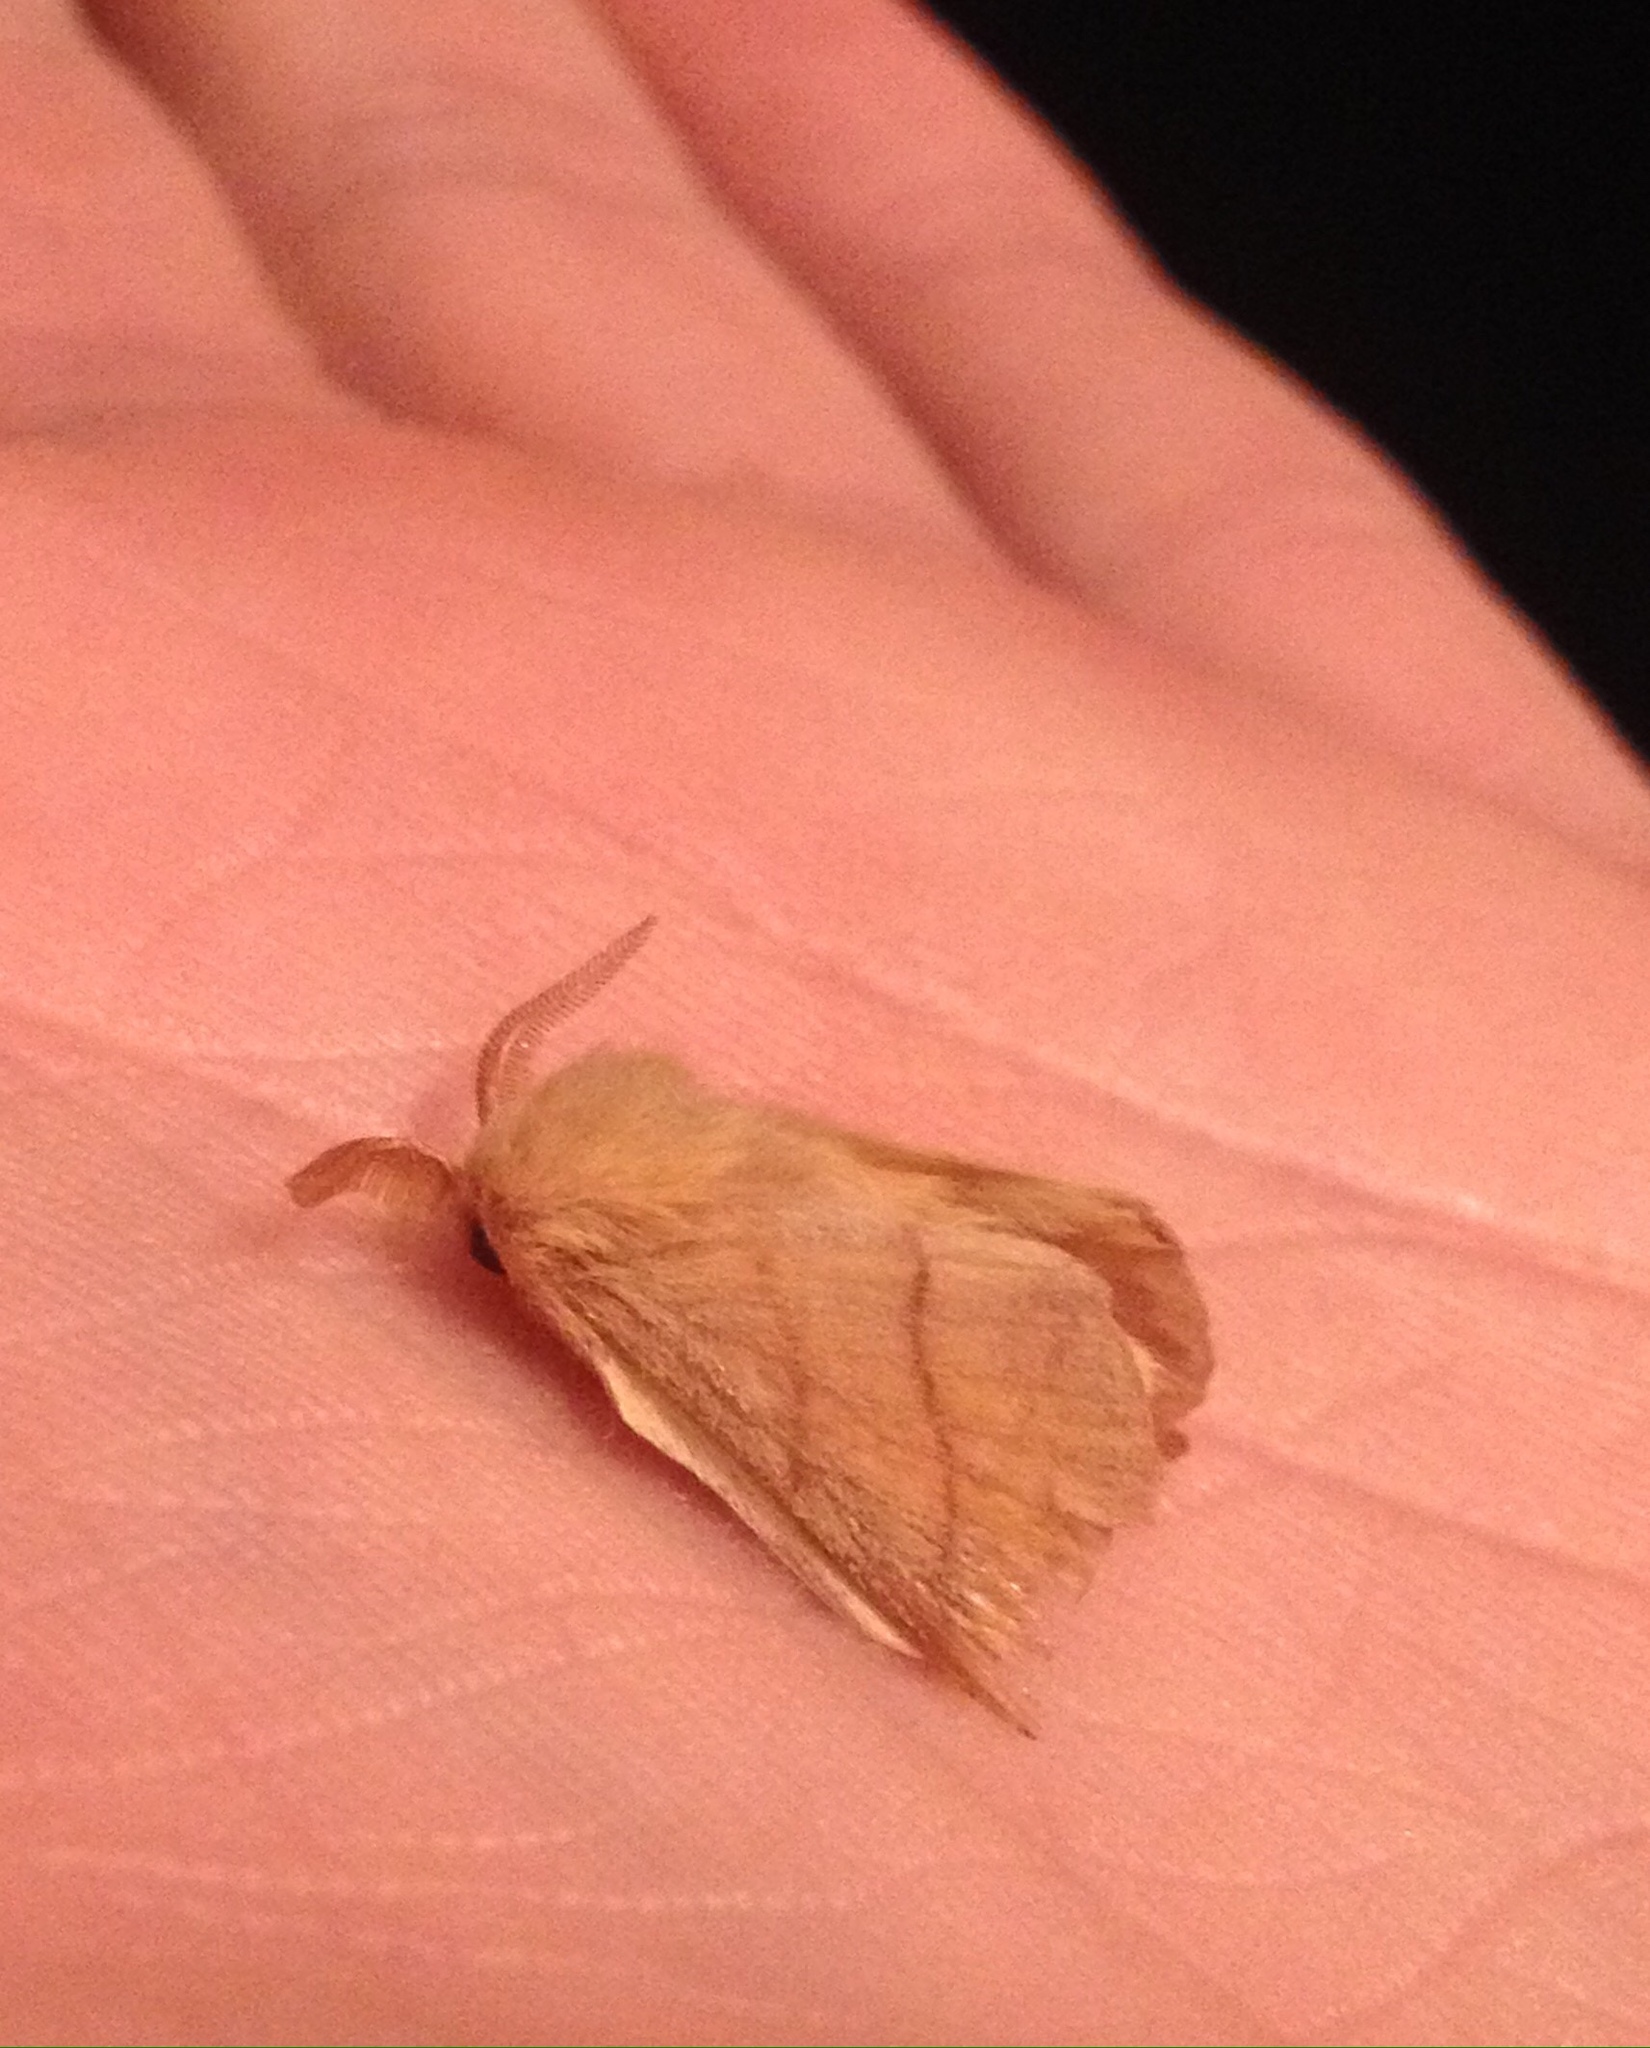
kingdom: Animalia
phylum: Arthropoda
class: Insecta
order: Lepidoptera
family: Lasiocampidae
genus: Malacosoma
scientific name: Malacosoma neustria
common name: The lackey
